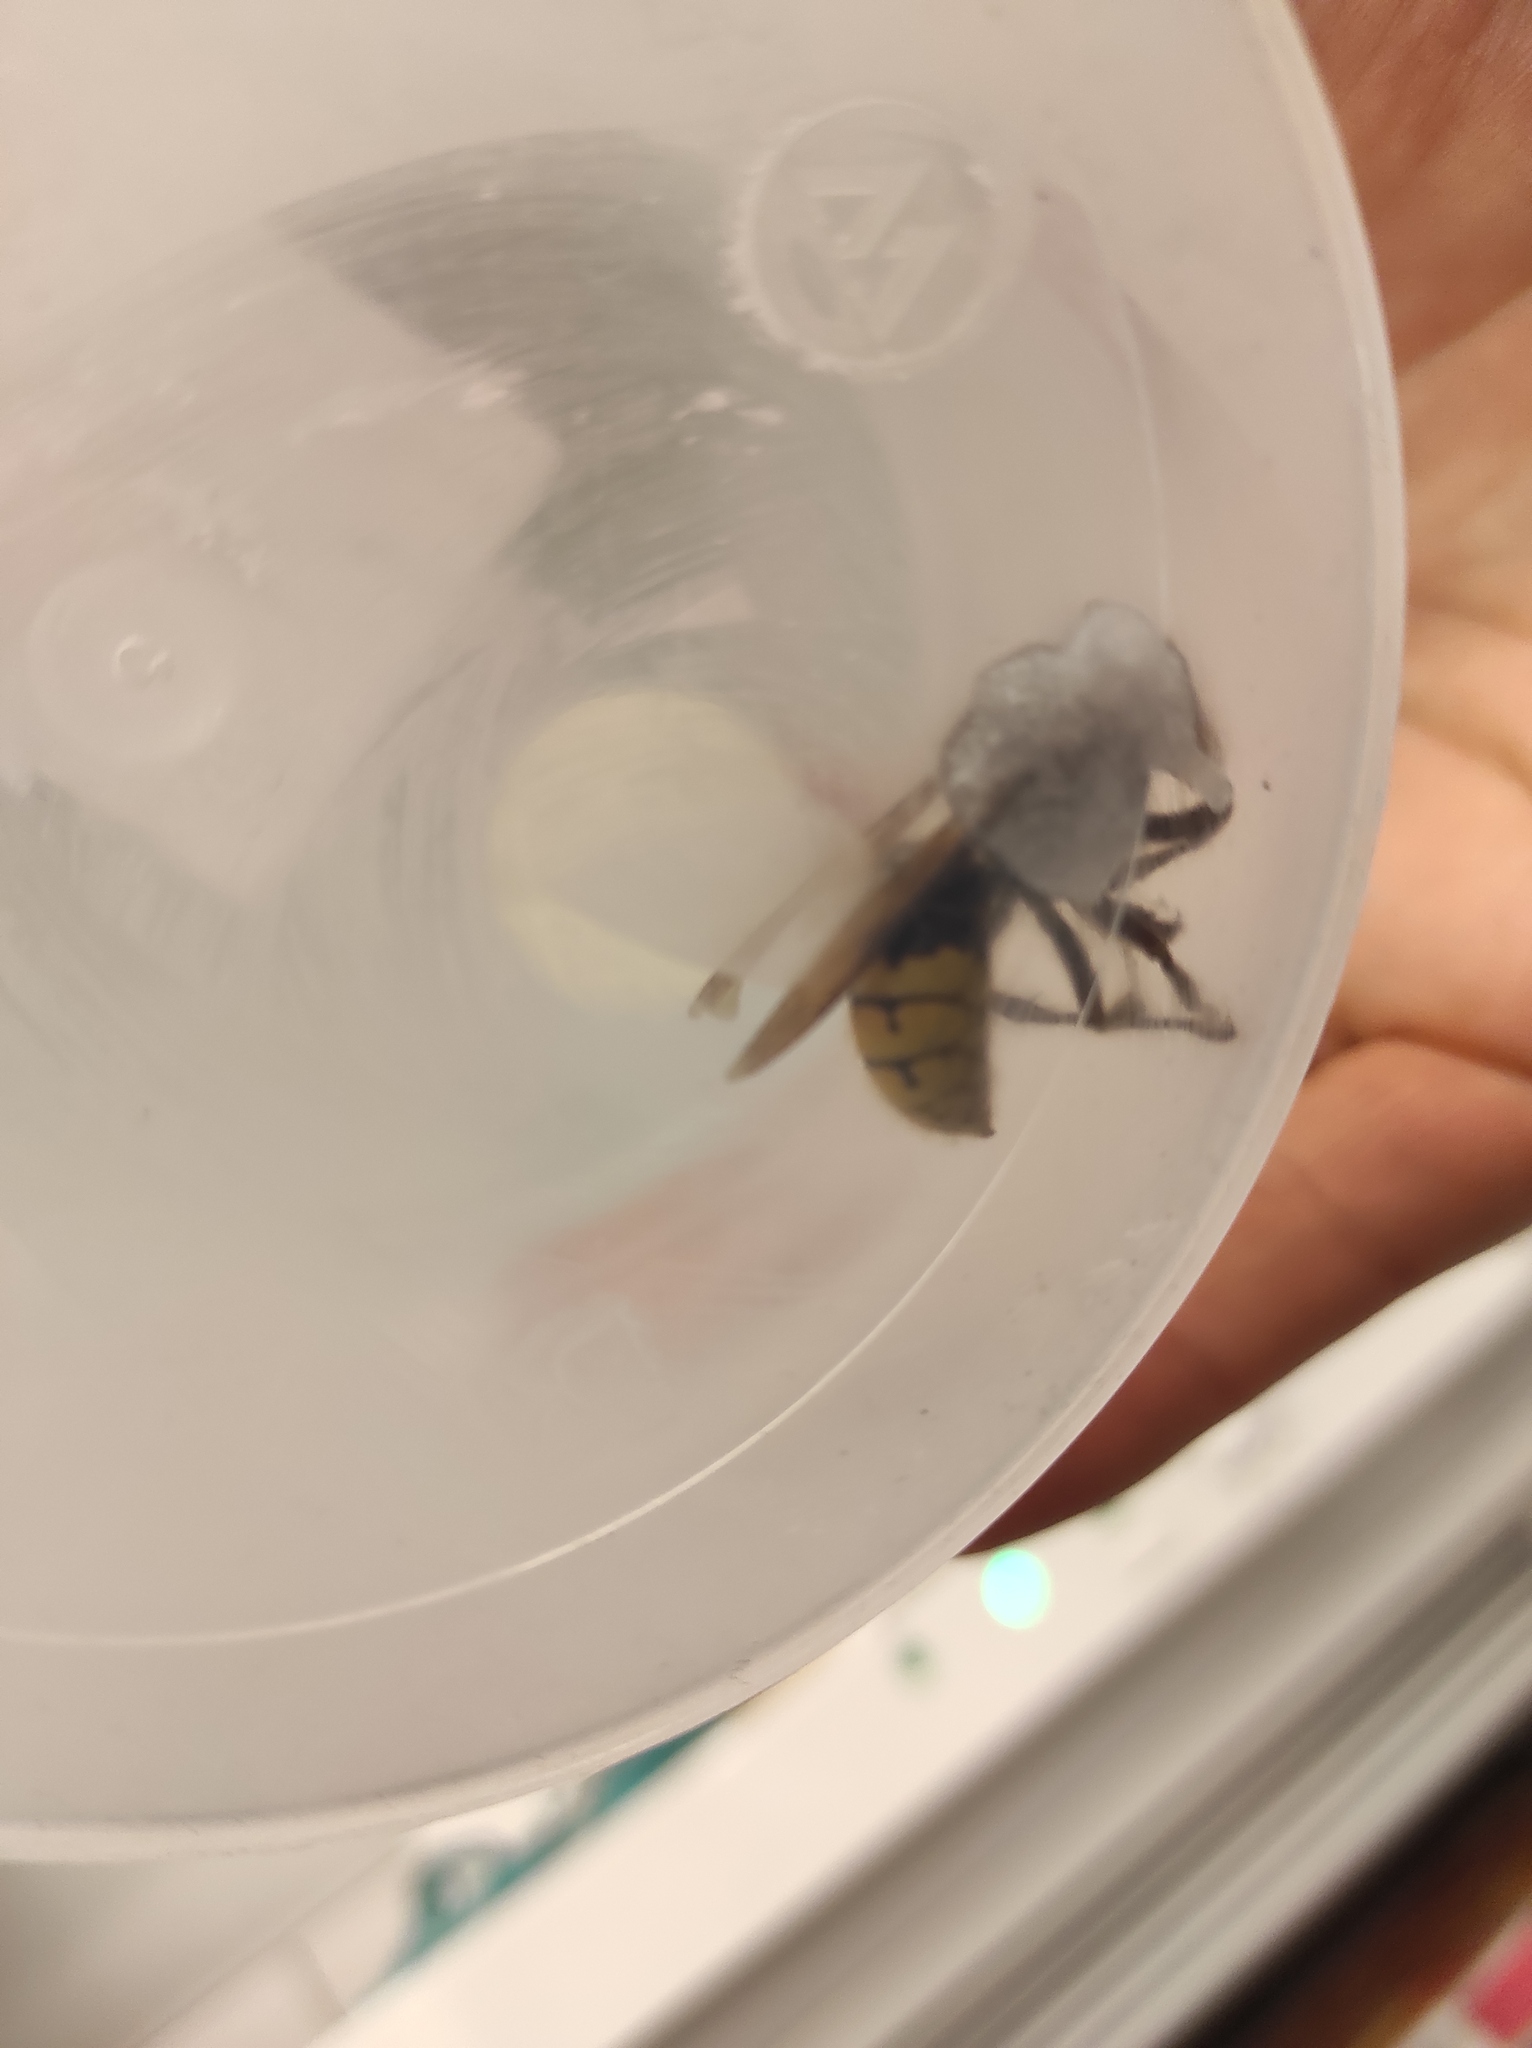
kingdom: Animalia
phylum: Arthropoda
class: Insecta
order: Hymenoptera
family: Vespidae
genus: Vespa
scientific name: Vespa crabro
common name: Hornet
